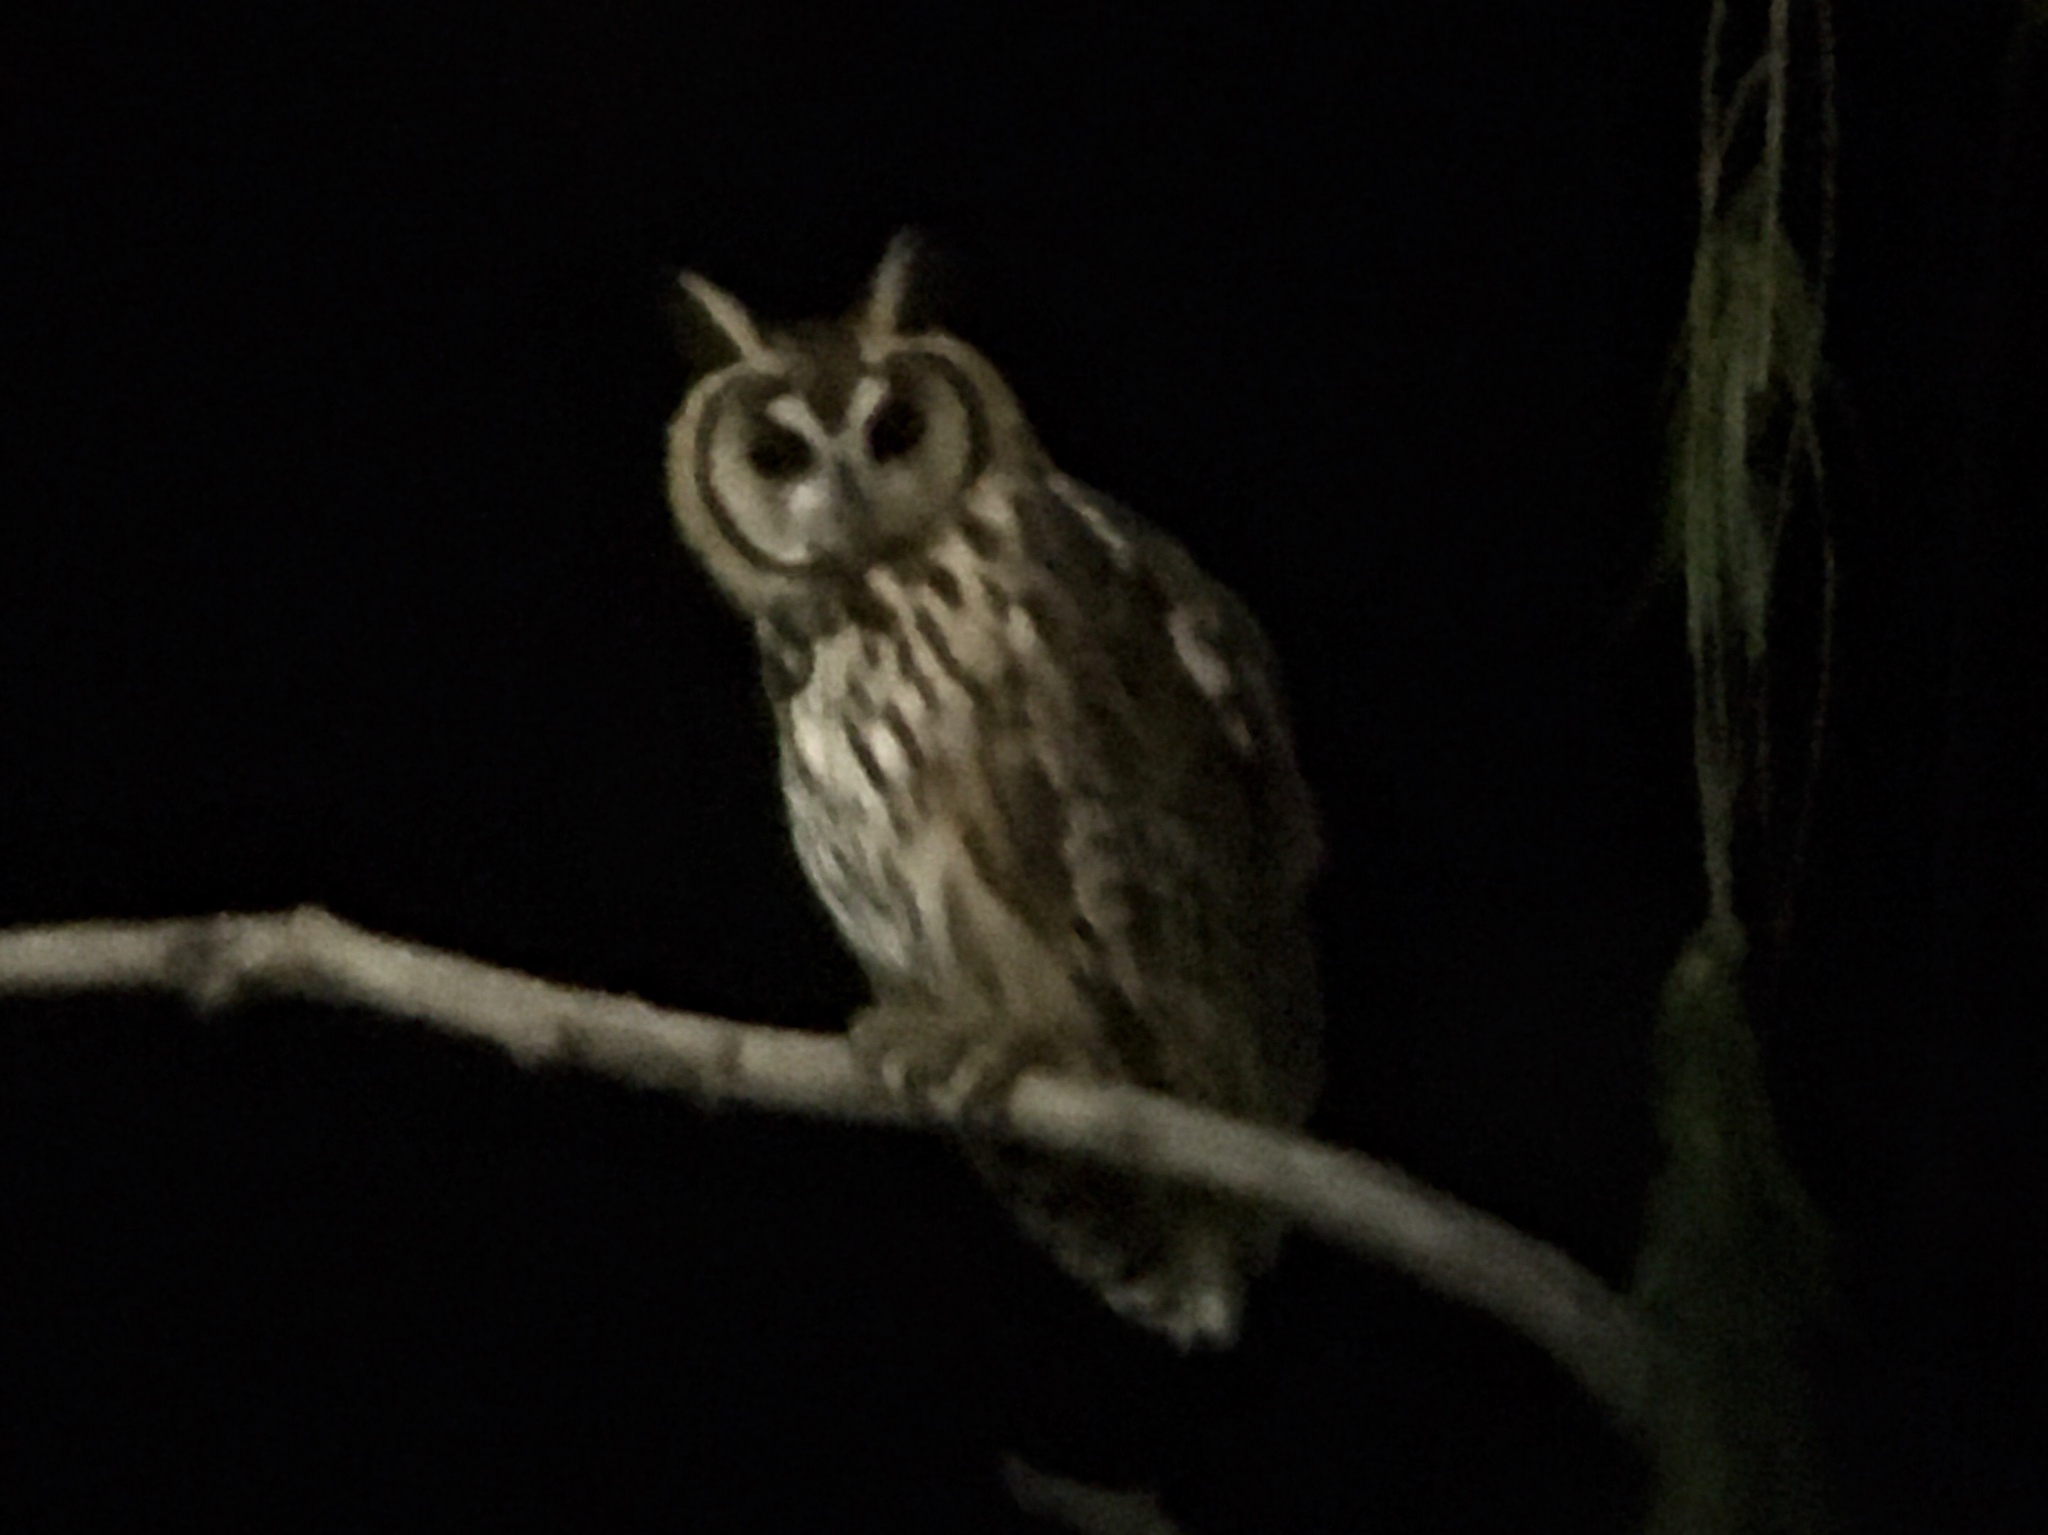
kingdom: Animalia
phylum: Chordata
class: Aves
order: Strigiformes
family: Strigidae
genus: Pseudoscops
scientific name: Pseudoscops clamator
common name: Striped owl
